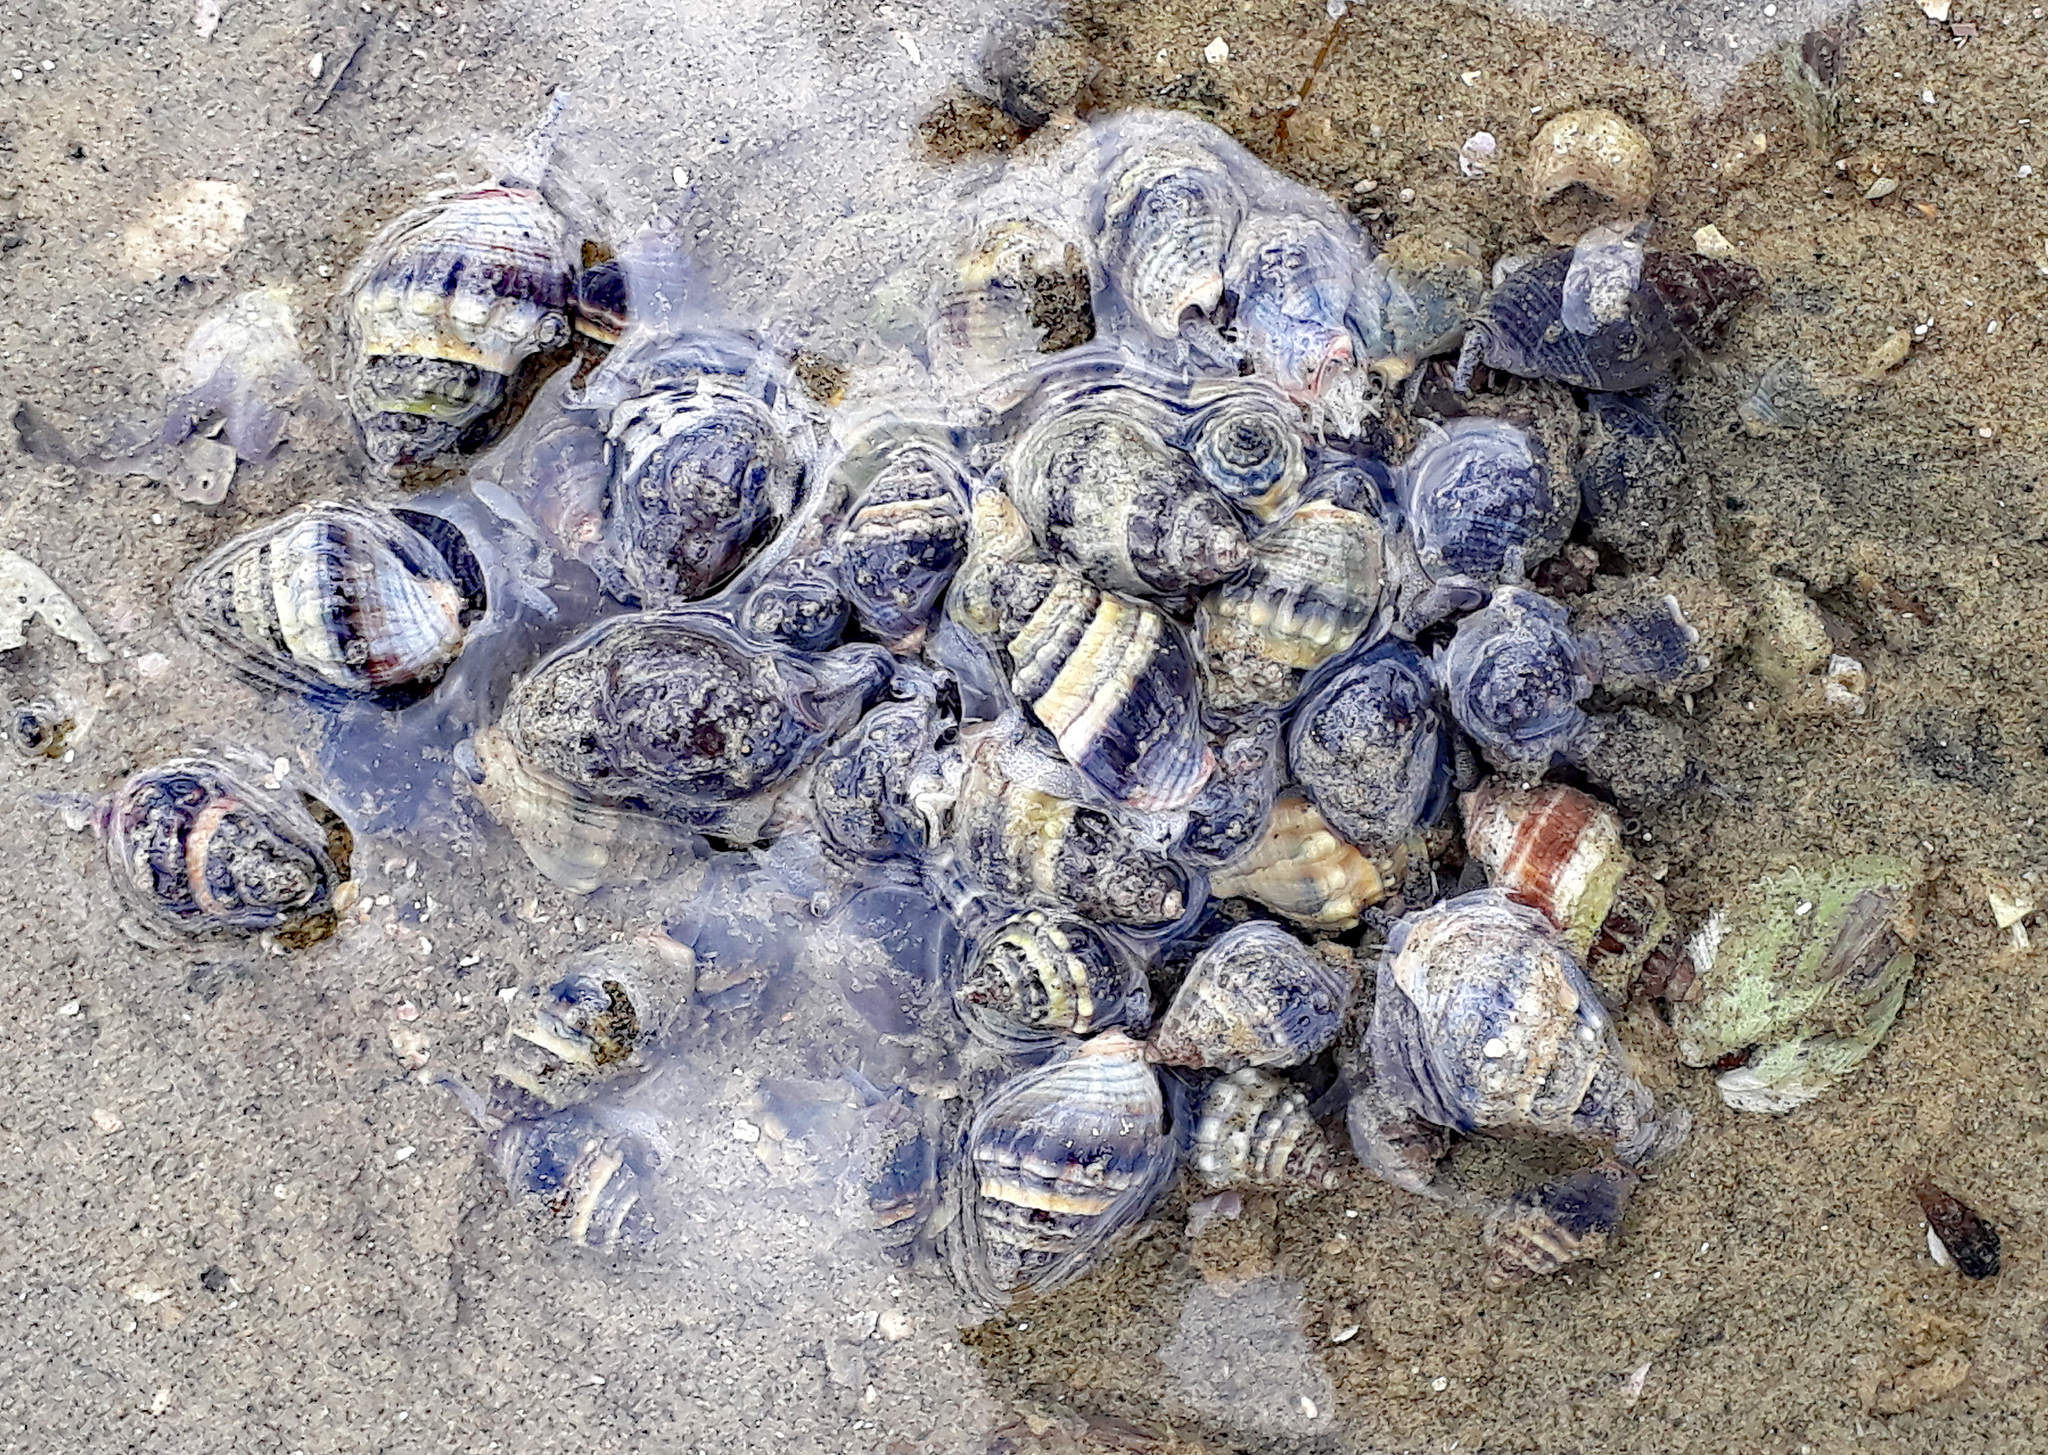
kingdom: Animalia
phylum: Mollusca
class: Gastropoda
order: Neogastropoda
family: Cominellidae
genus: Cominella
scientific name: Cominella glandiformis
